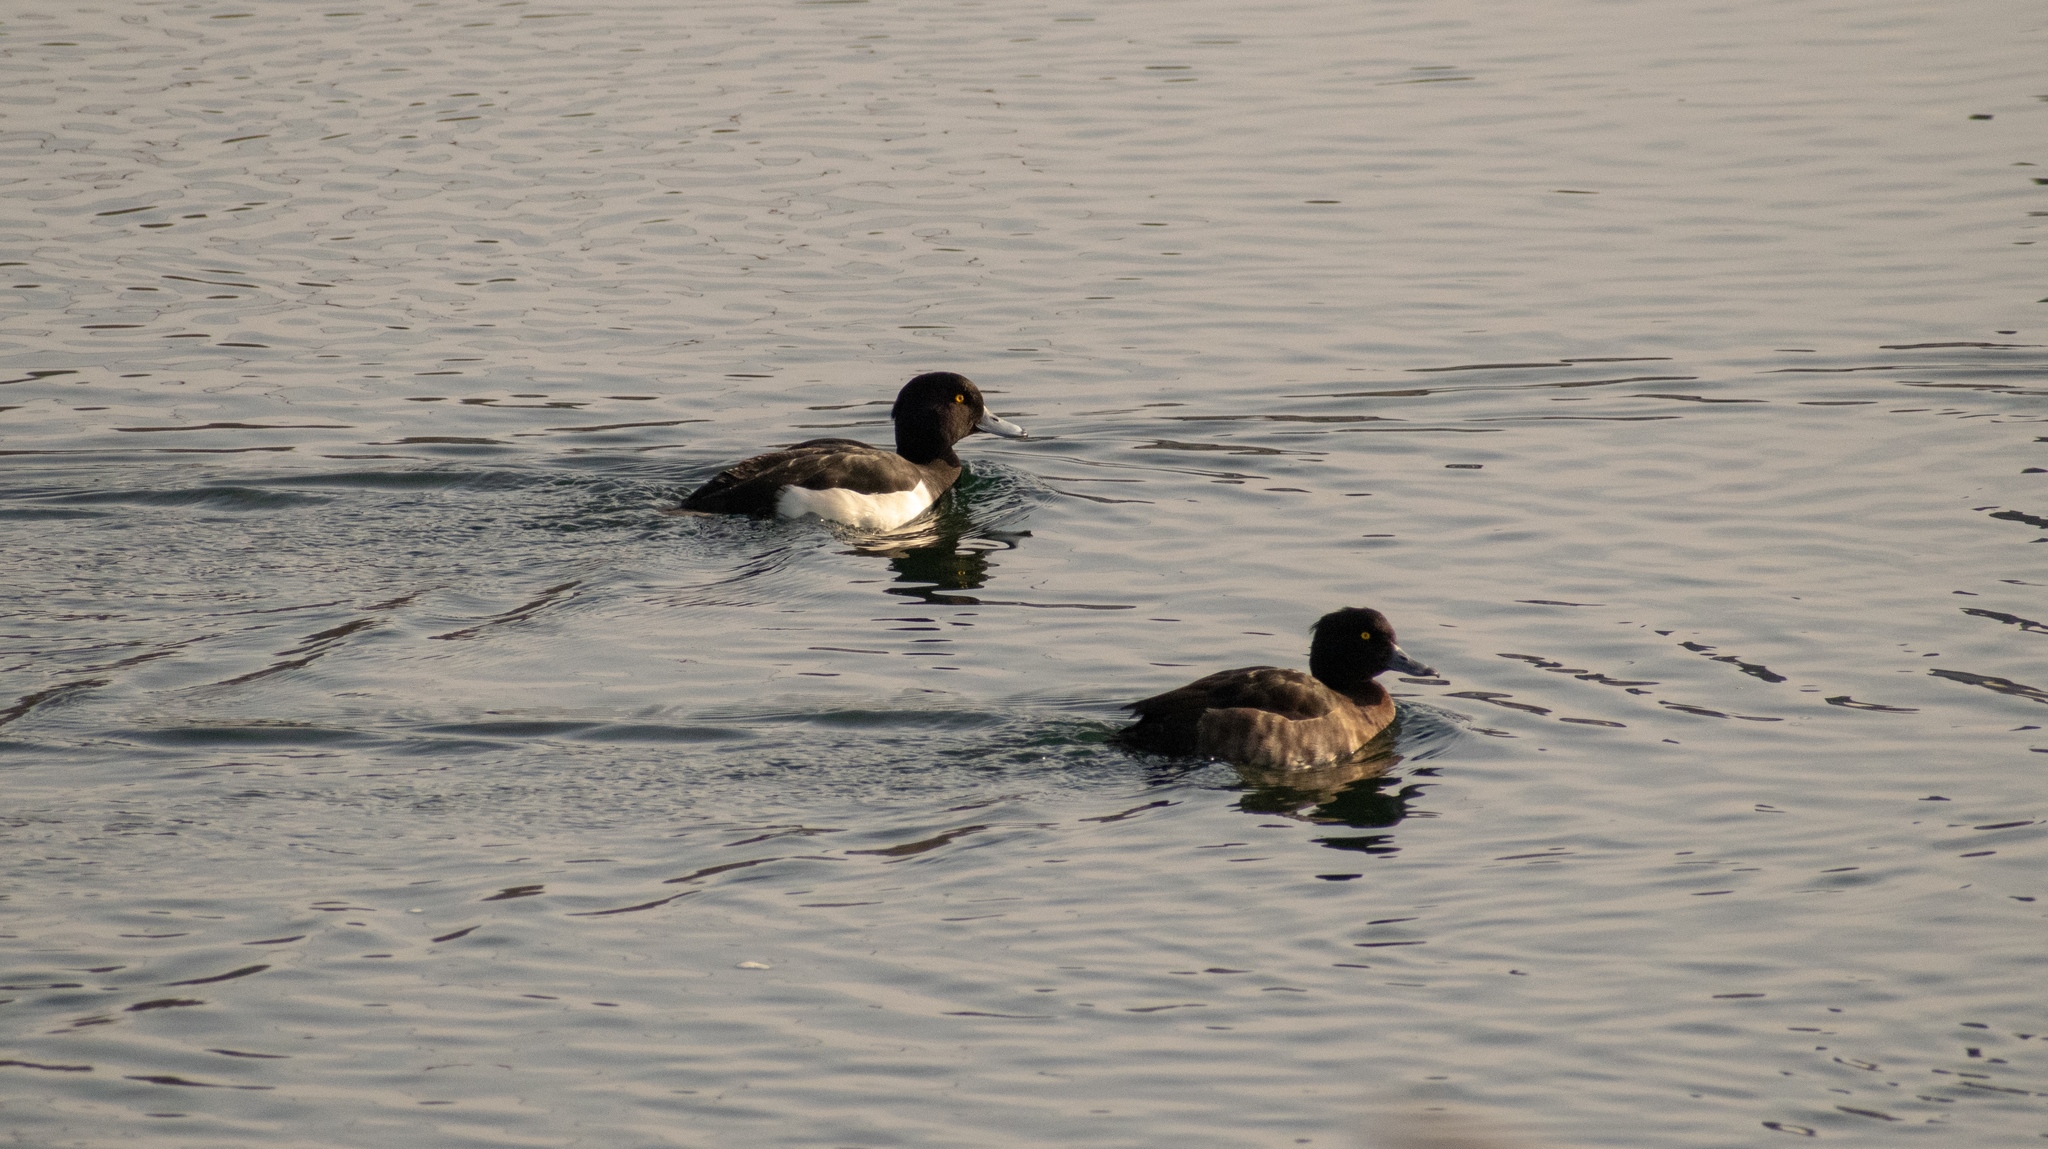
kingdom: Animalia
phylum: Chordata
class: Aves
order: Anseriformes
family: Anatidae
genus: Aythya
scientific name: Aythya fuligula
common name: Tufted duck
